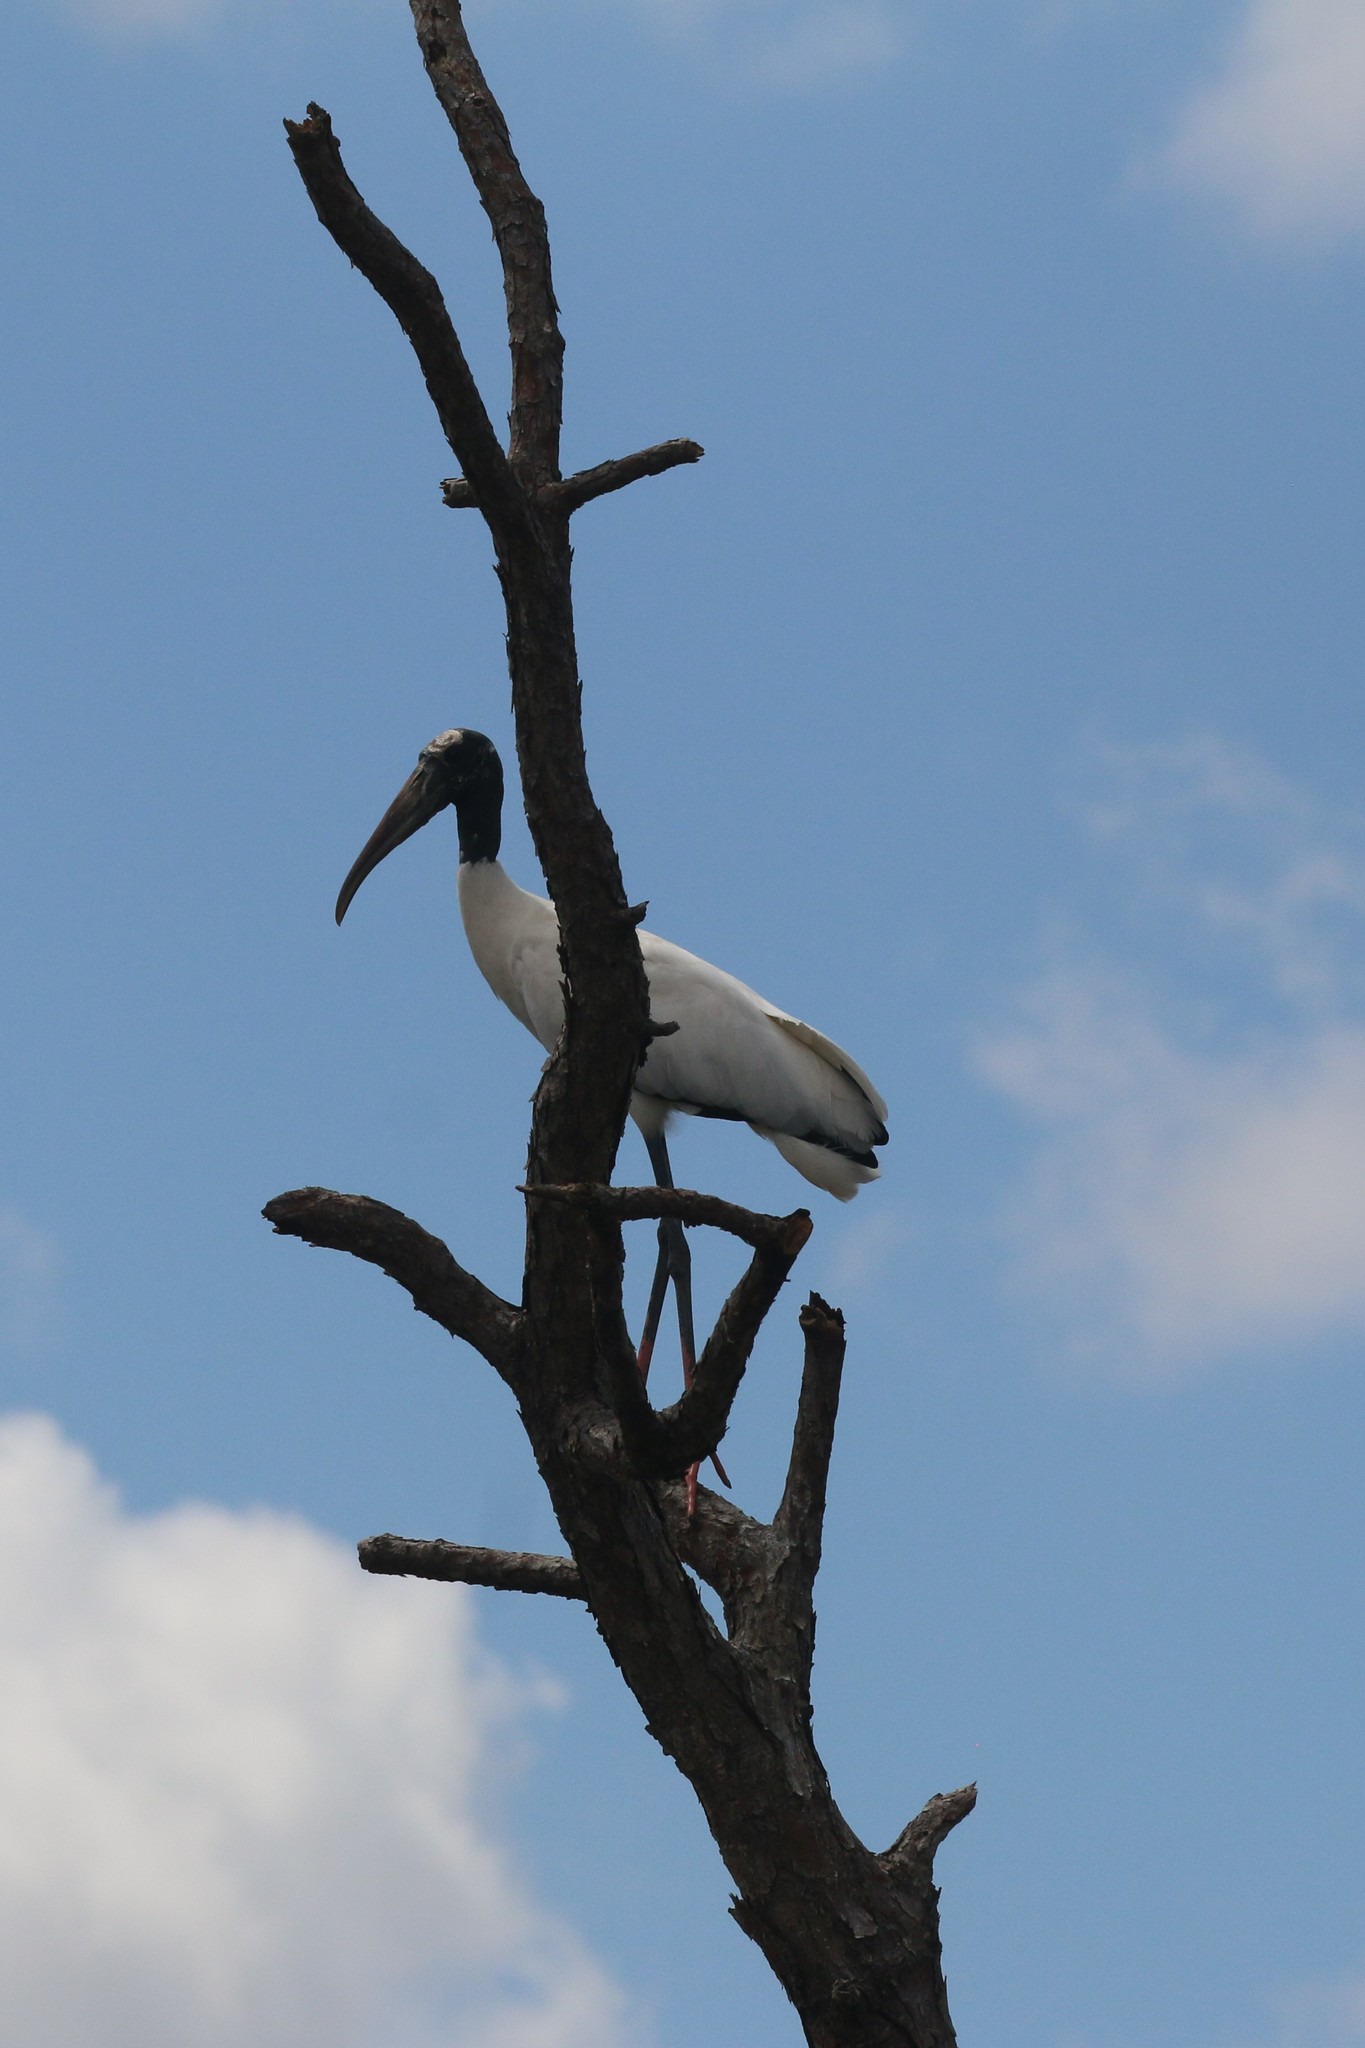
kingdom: Animalia
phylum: Chordata
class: Aves
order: Ciconiiformes
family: Ciconiidae
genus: Mycteria
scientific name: Mycteria americana
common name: Wood stork
